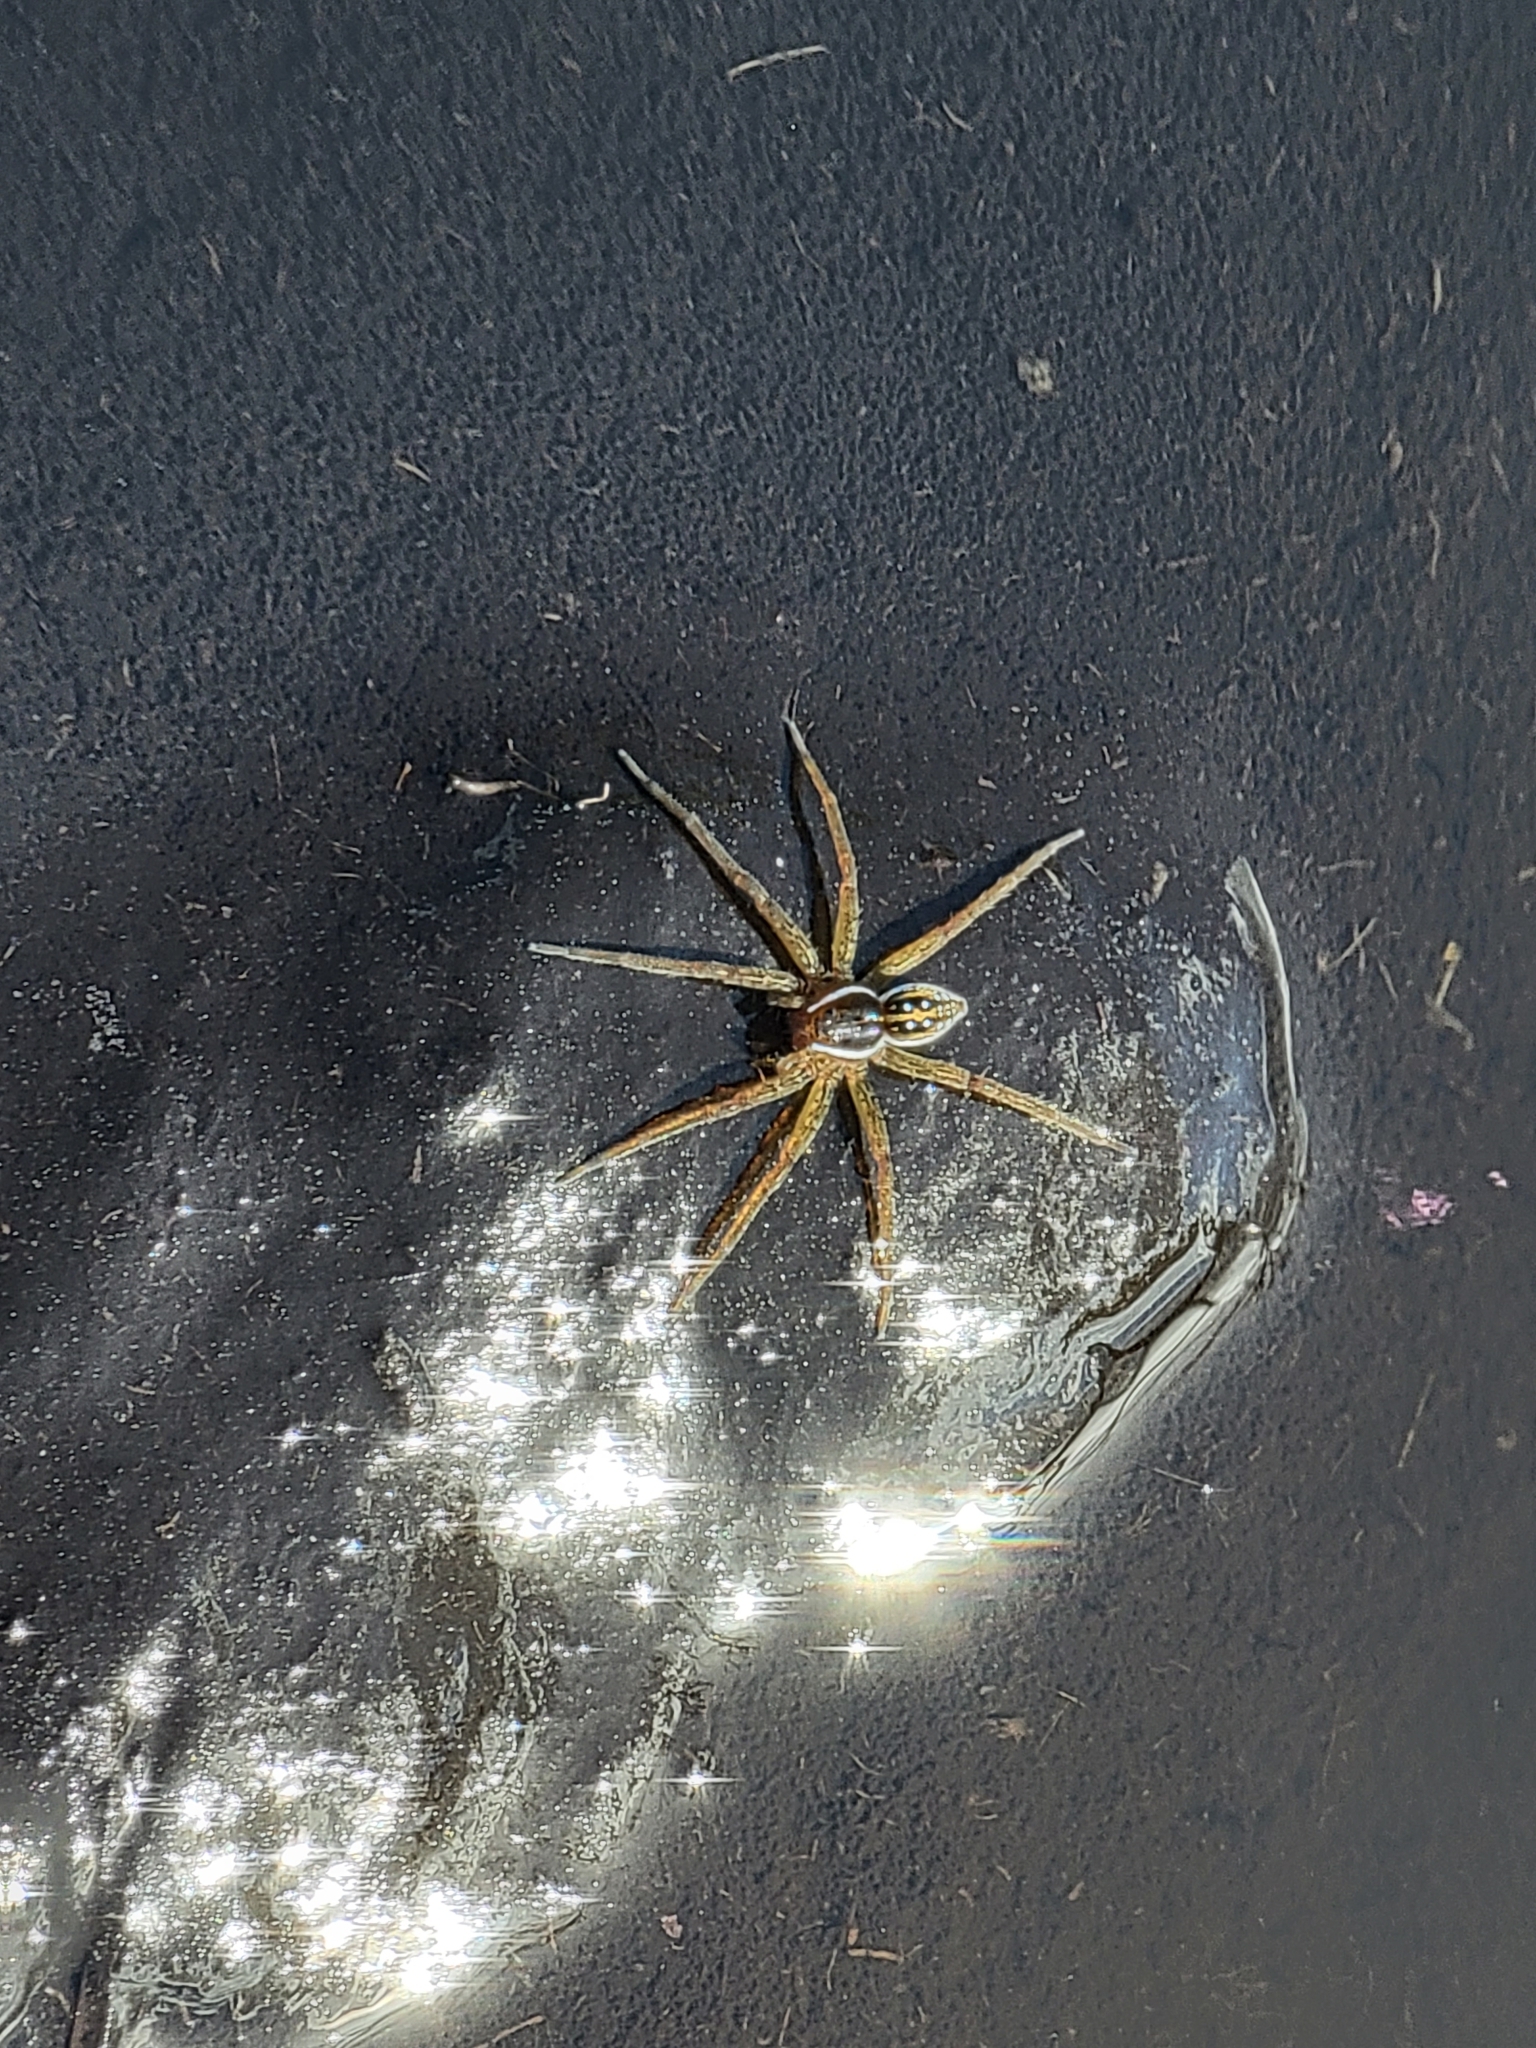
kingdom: Animalia
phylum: Arthropoda
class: Arachnida
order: Araneae
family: Pisauridae
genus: Dolomedes
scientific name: Dolomedes triton
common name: Six-spotted fishing spider
